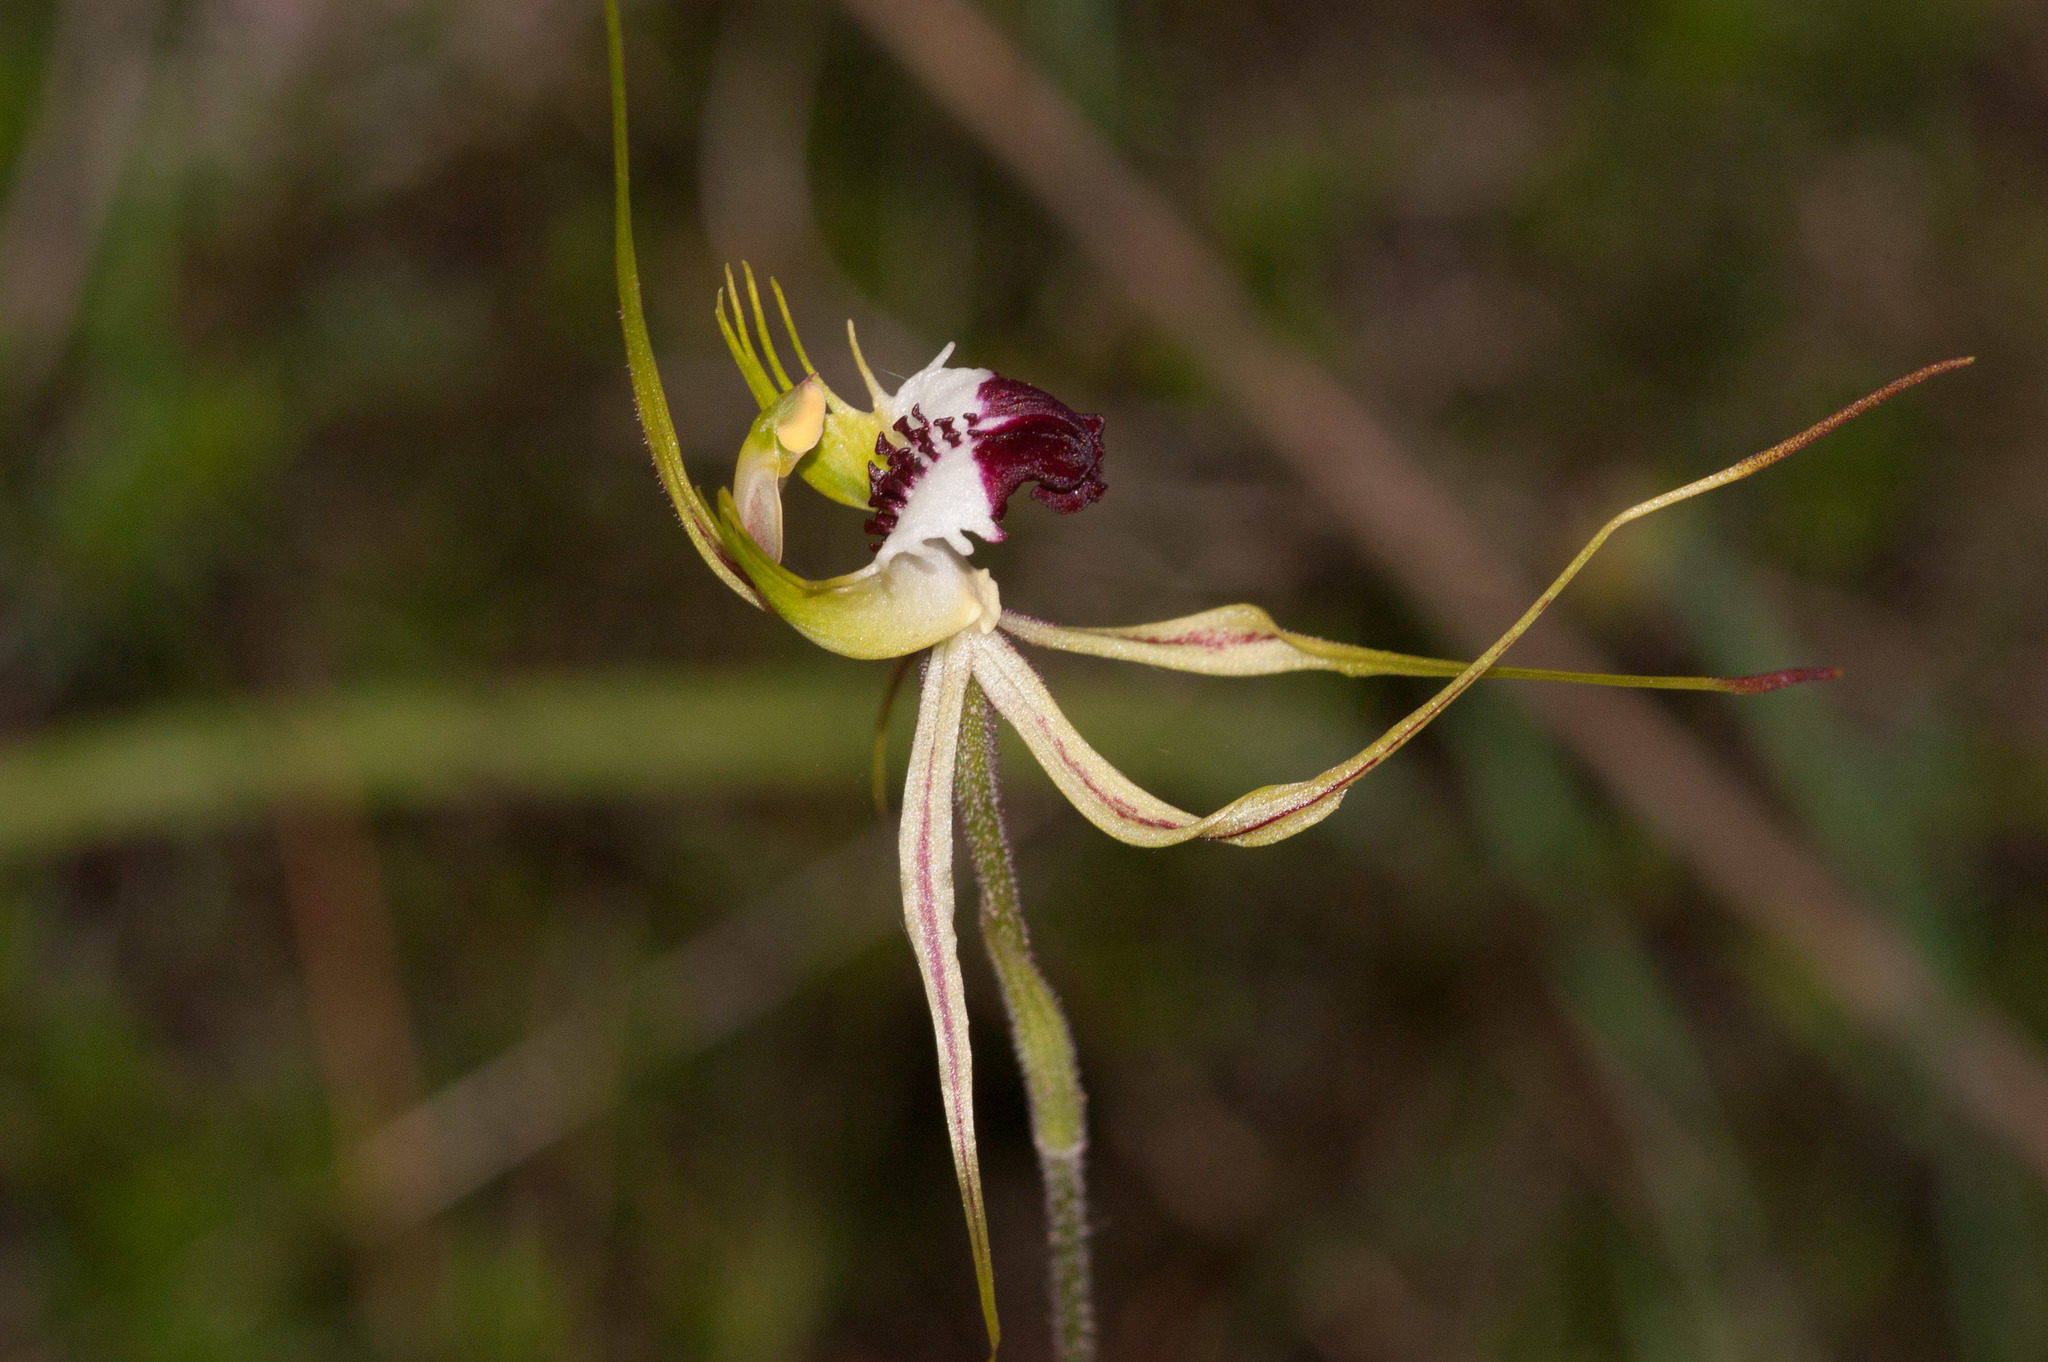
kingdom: Plantae
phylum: Tracheophyta
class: Liliopsida
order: Asparagales
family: Orchidaceae
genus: Caladenia
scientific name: Caladenia tentaculata
